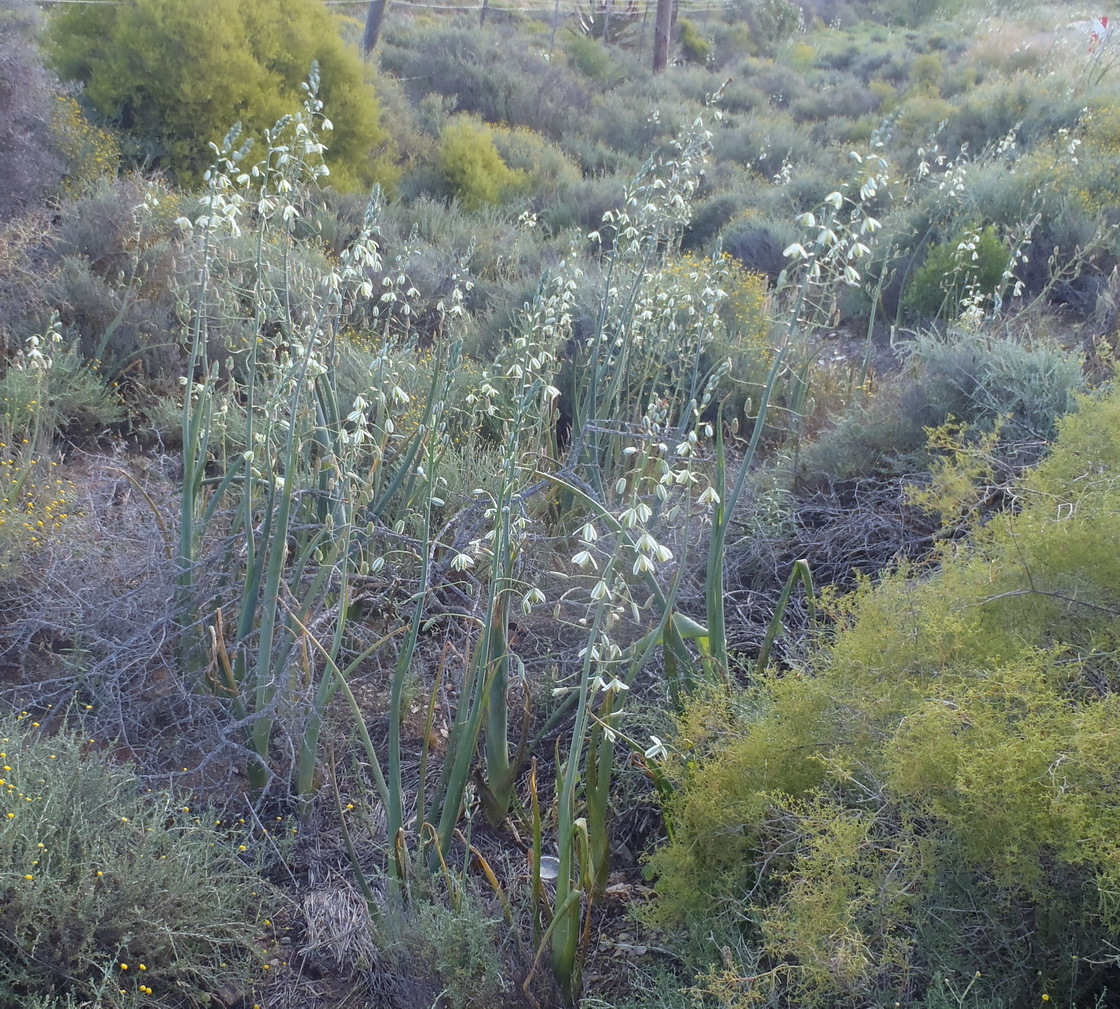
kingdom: Plantae
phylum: Tracheophyta
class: Liliopsida
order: Asparagales
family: Asparagaceae
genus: Albuca
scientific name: Albuca canadensis
